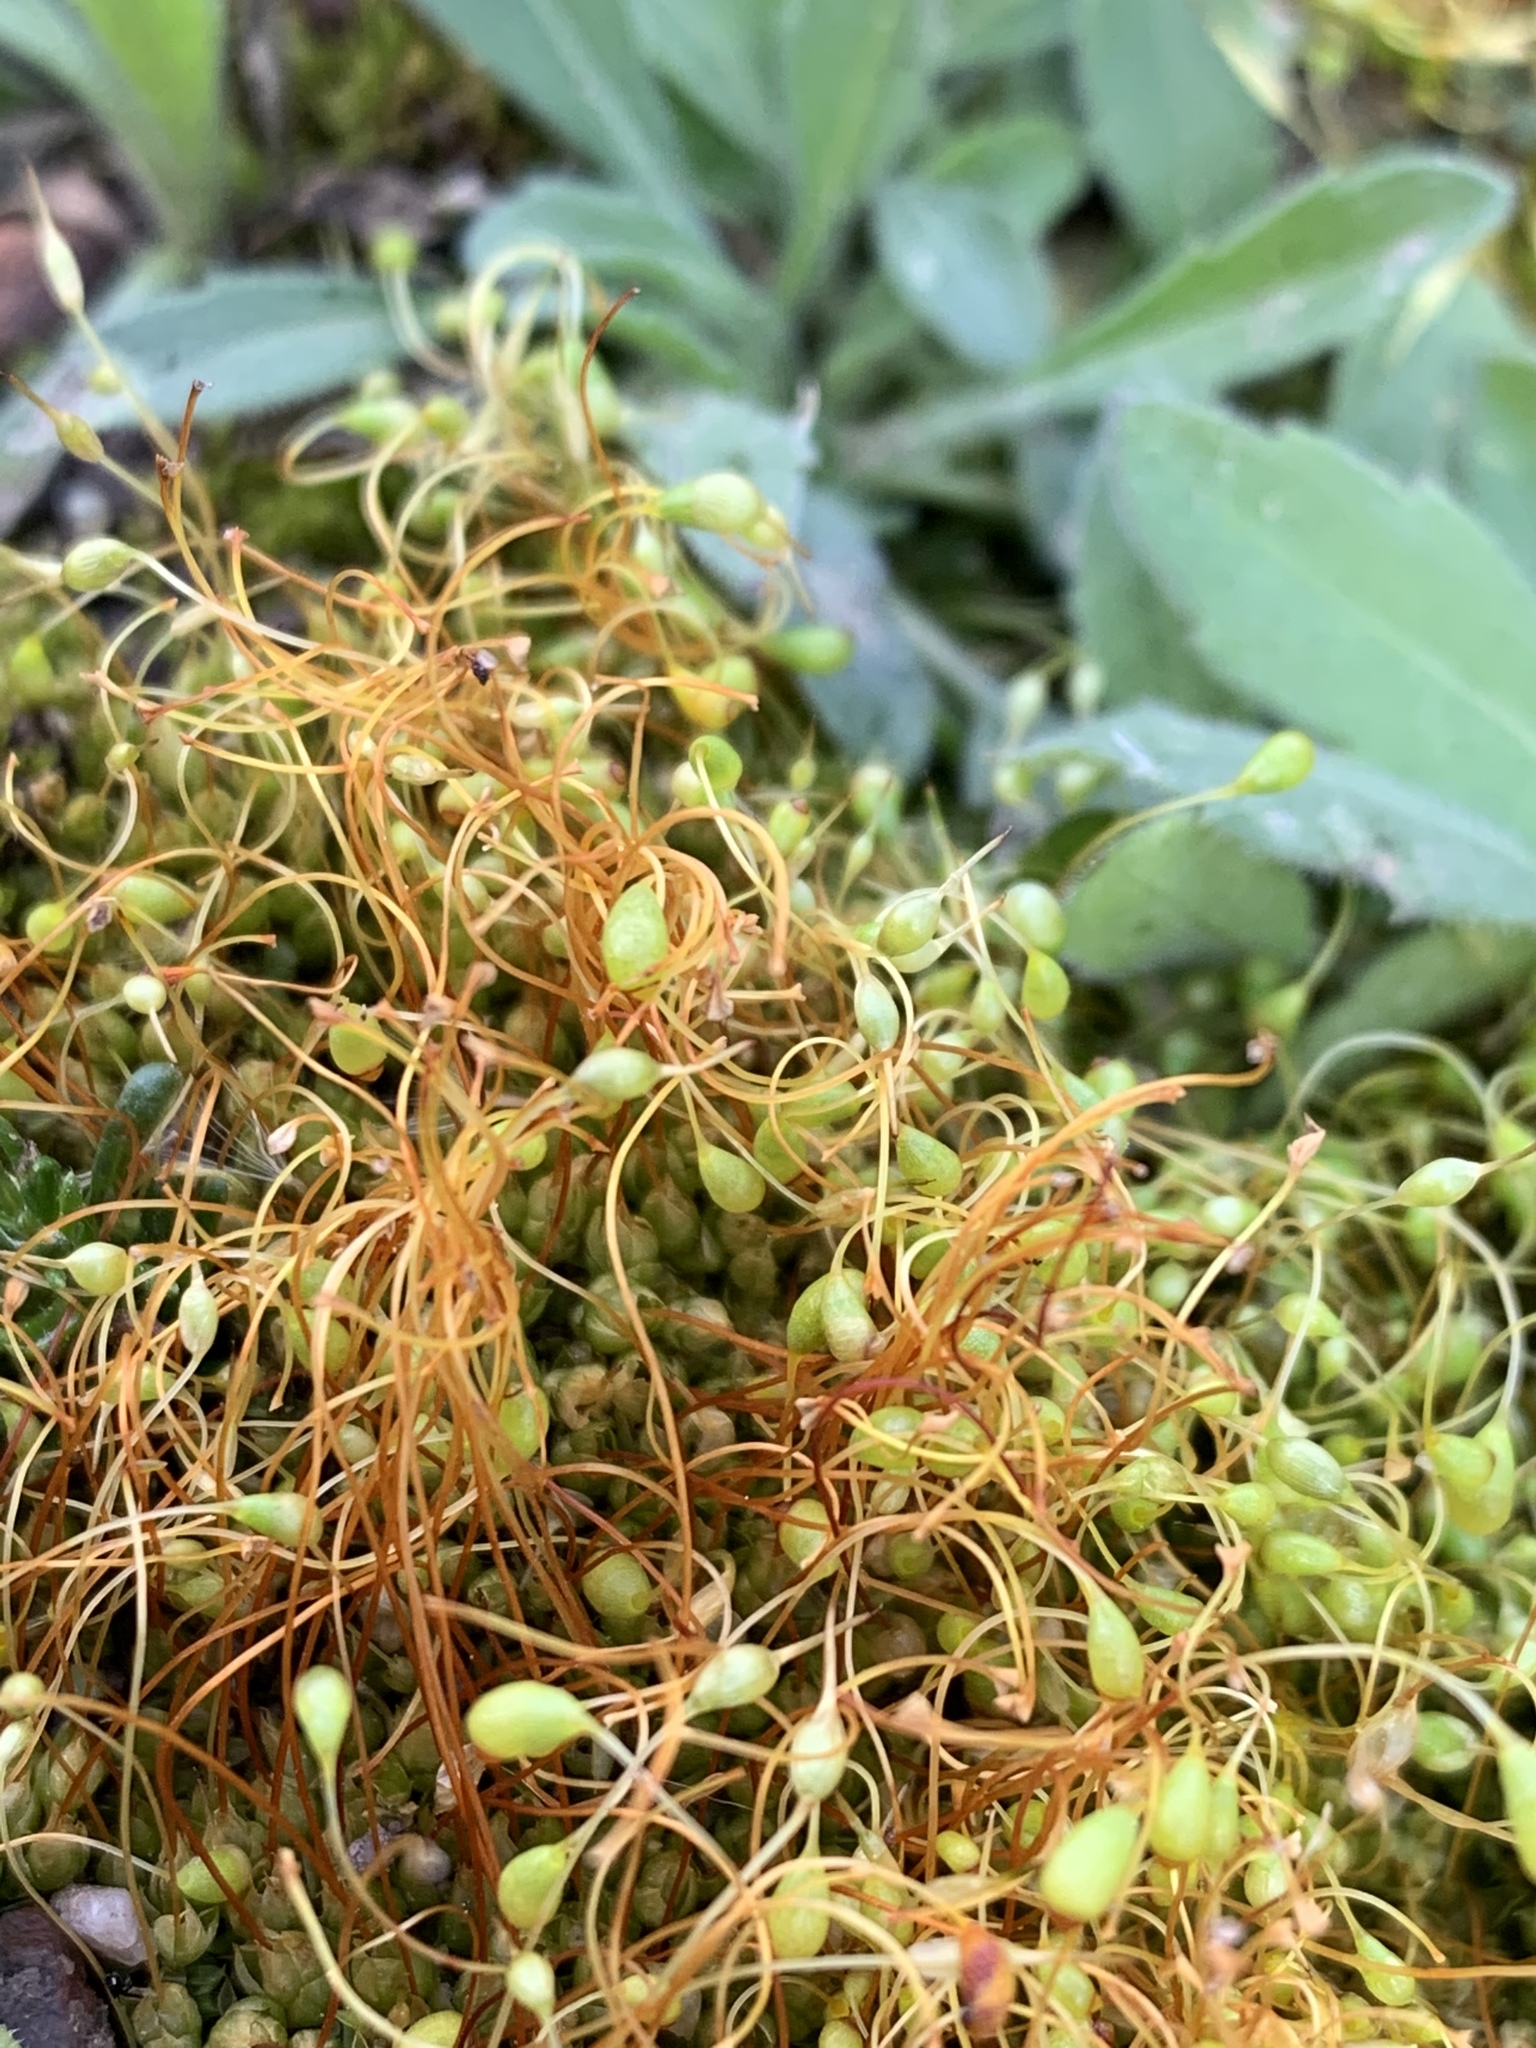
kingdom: Plantae
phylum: Bryophyta
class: Bryopsida
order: Funariales
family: Funariaceae
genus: Funaria
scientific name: Funaria hygrometrica
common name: Common cord moss
